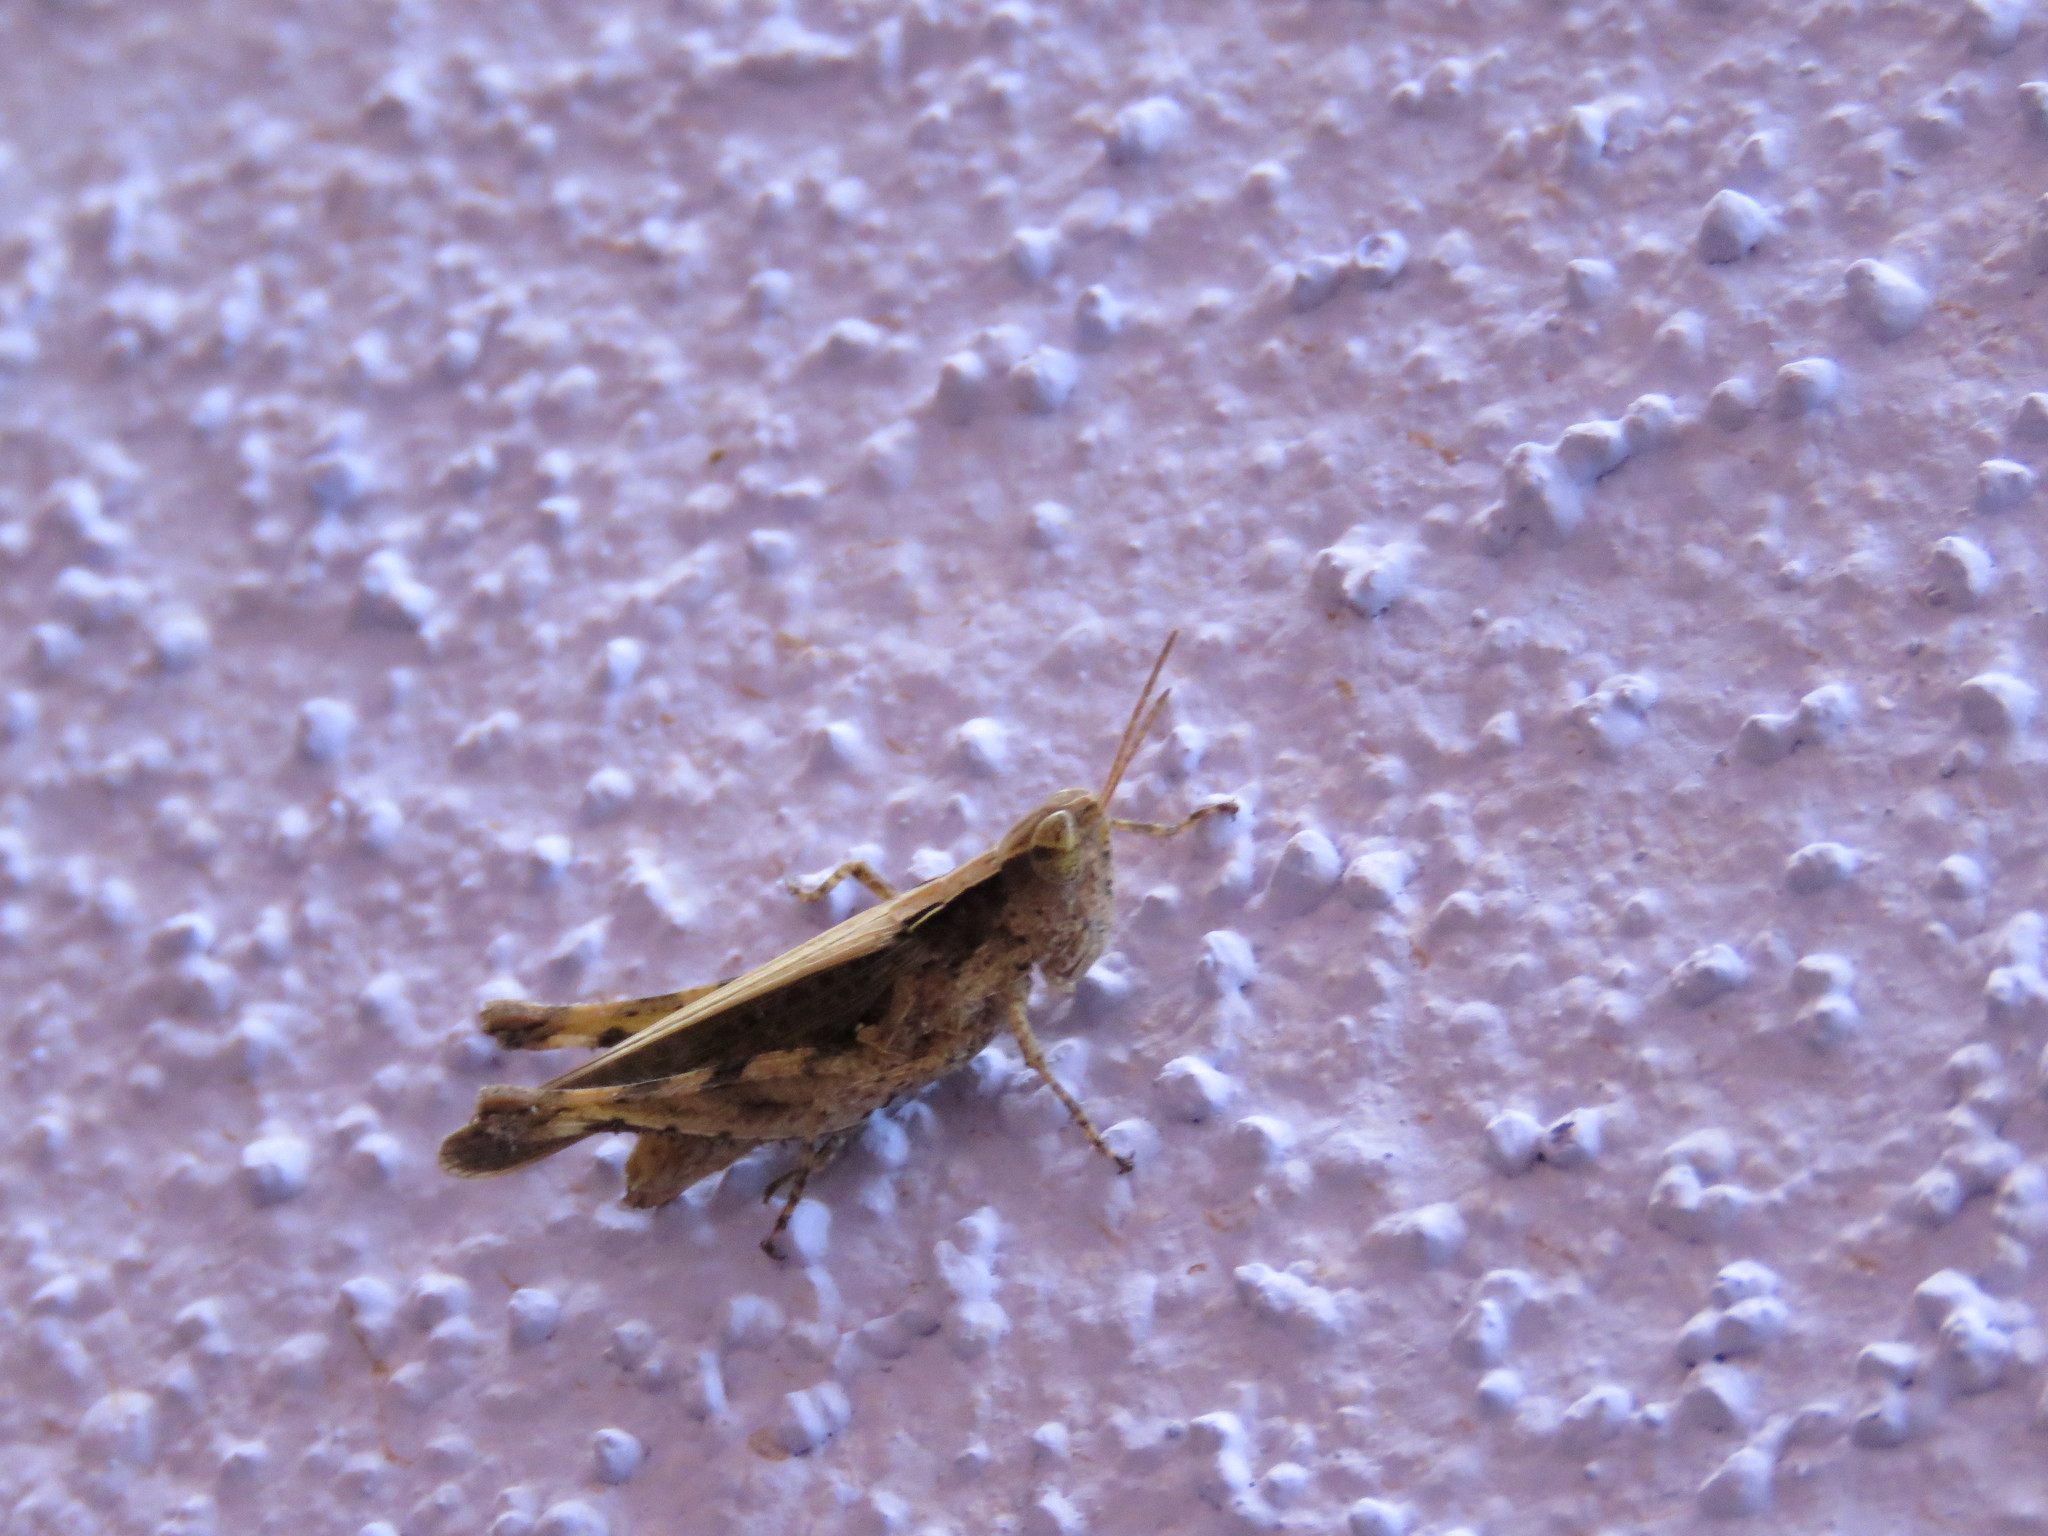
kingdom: Animalia
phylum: Arthropoda
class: Insecta
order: Orthoptera
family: Acrididae
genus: Orphulella
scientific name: Orphulella punctata
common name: Slant-faced grasshopper
